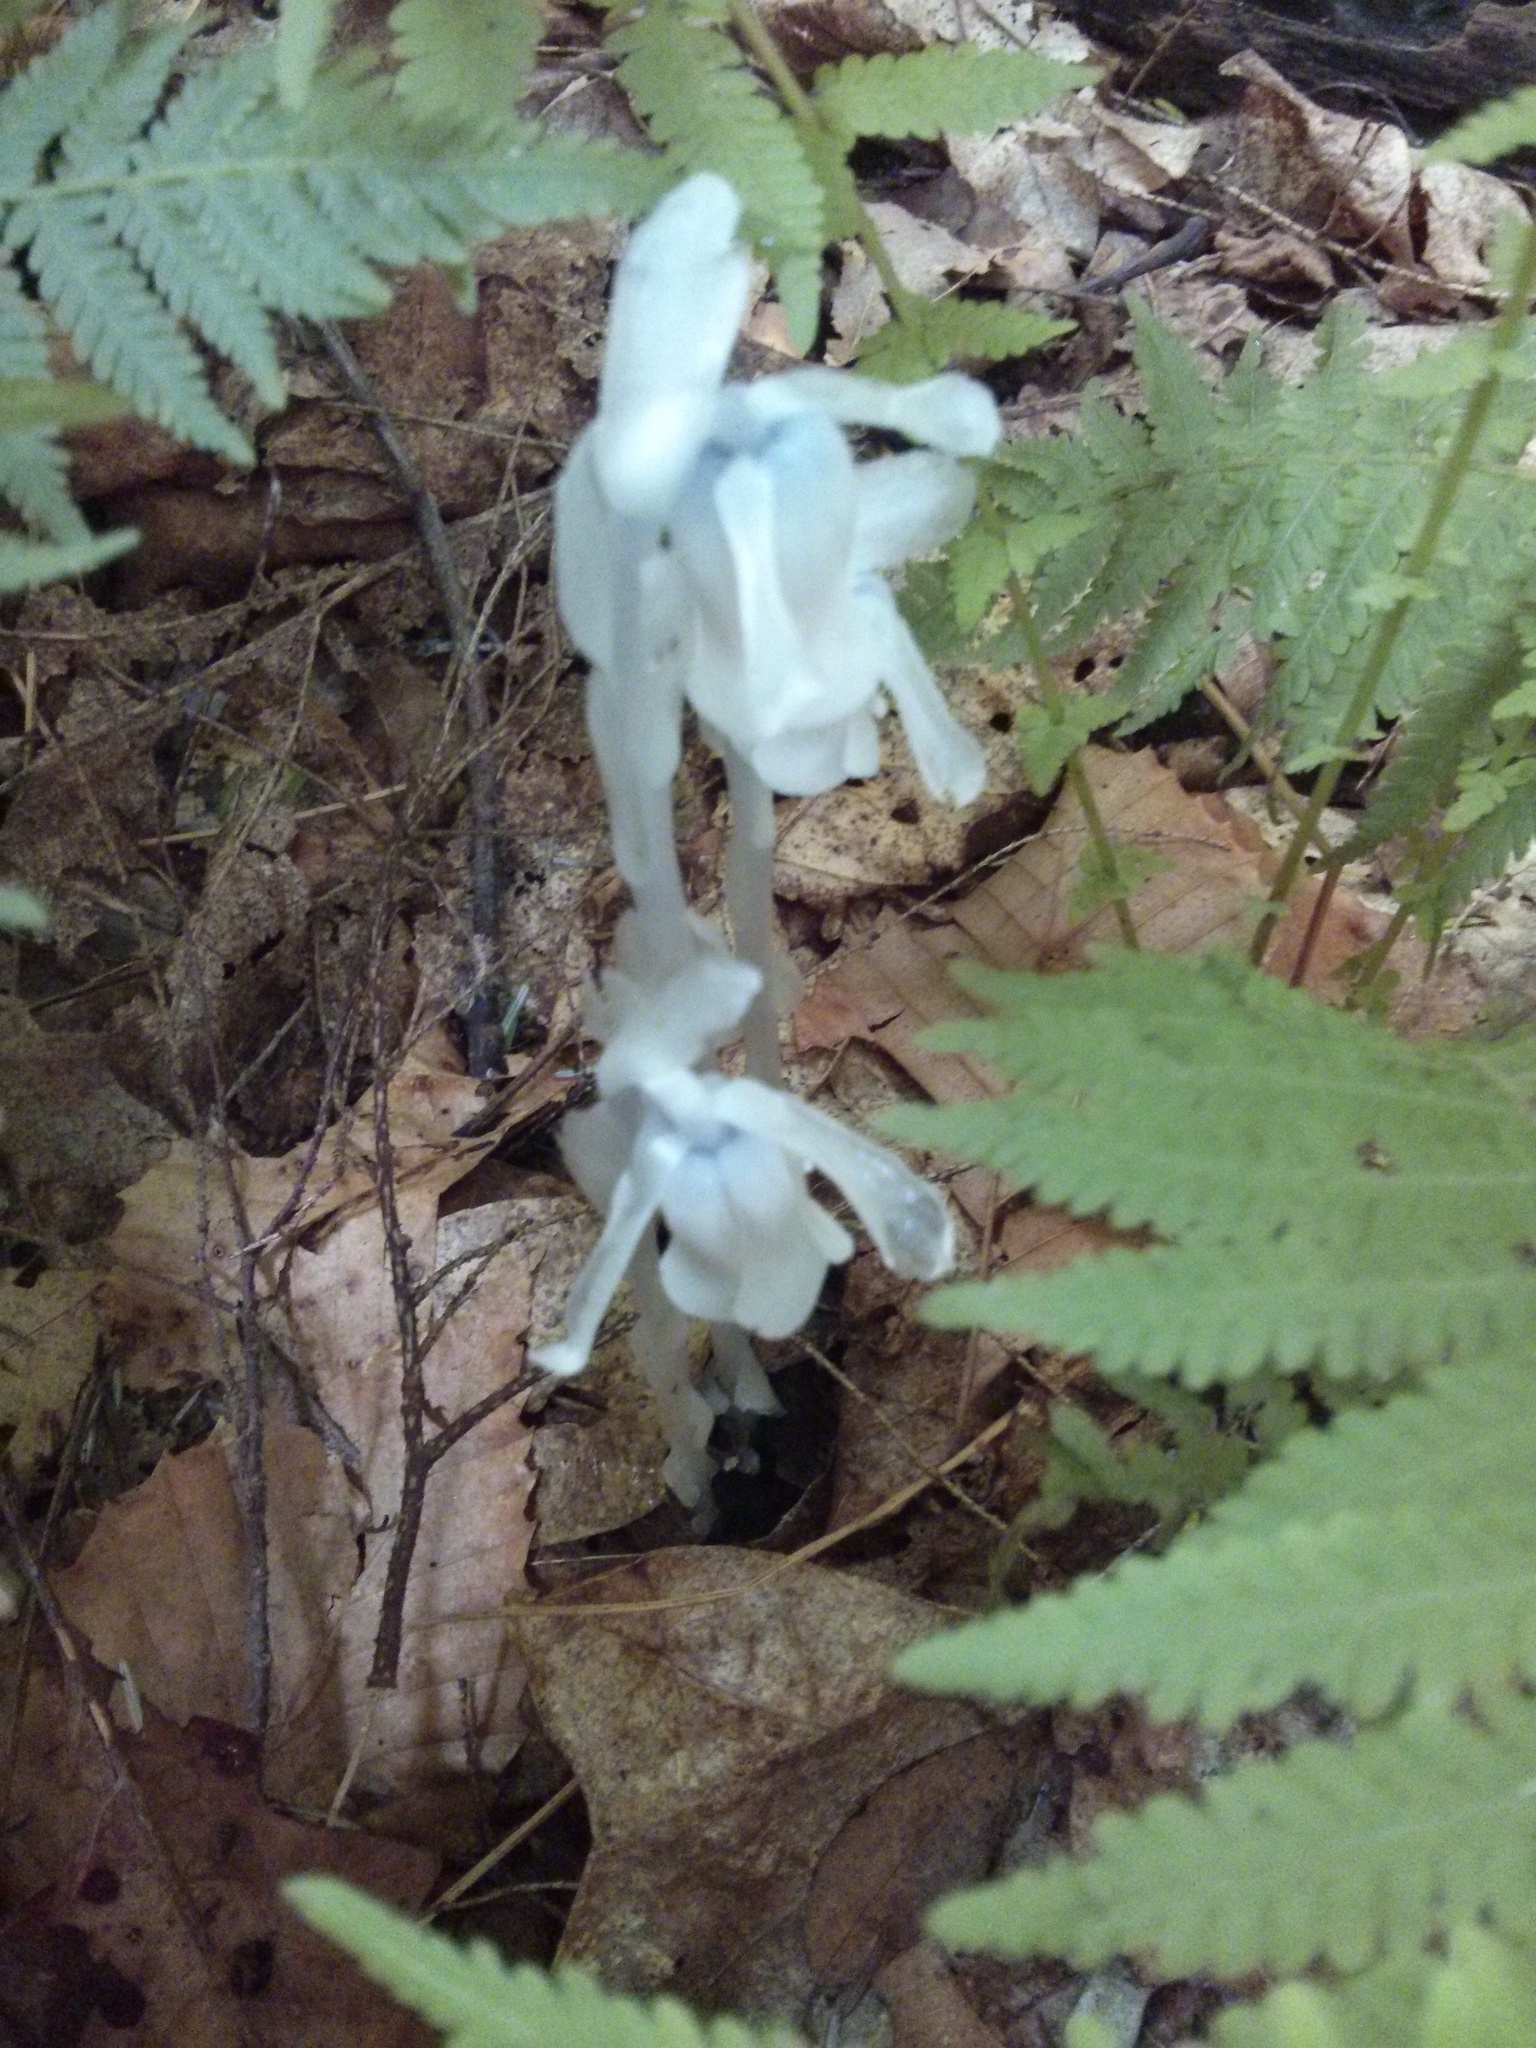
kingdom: Plantae
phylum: Tracheophyta
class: Magnoliopsida
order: Ericales
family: Ericaceae
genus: Monotropa
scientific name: Monotropa uniflora
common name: Convulsion root
